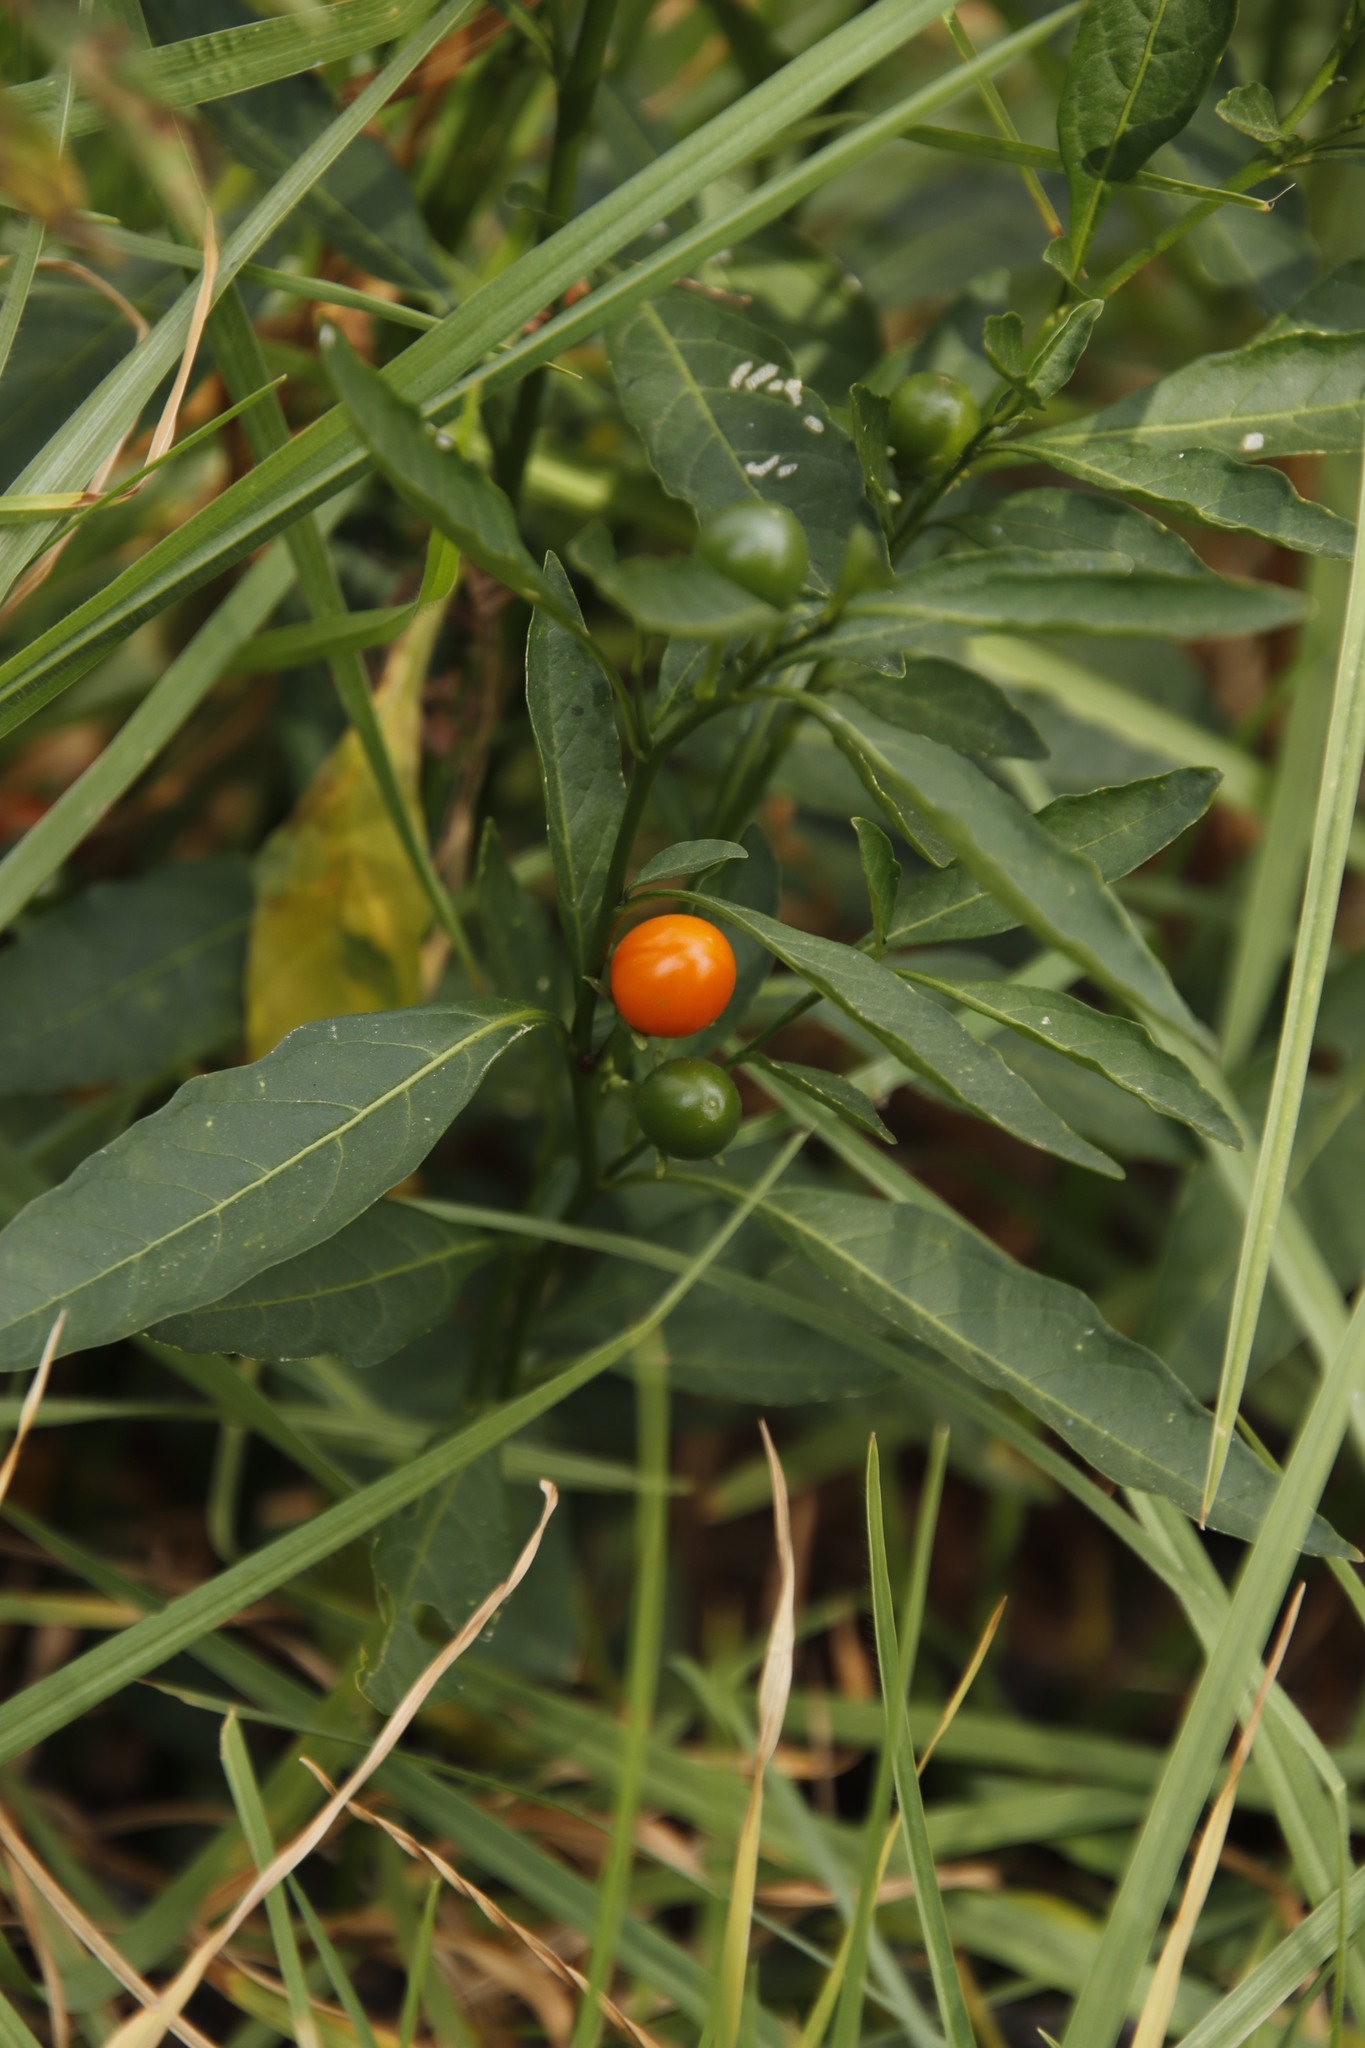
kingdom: Plantae
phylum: Tracheophyta
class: Magnoliopsida
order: Solanales
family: Solanaceae
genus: Solanum
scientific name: Solanum pseudocapsicum
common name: Jerusalem cherry
